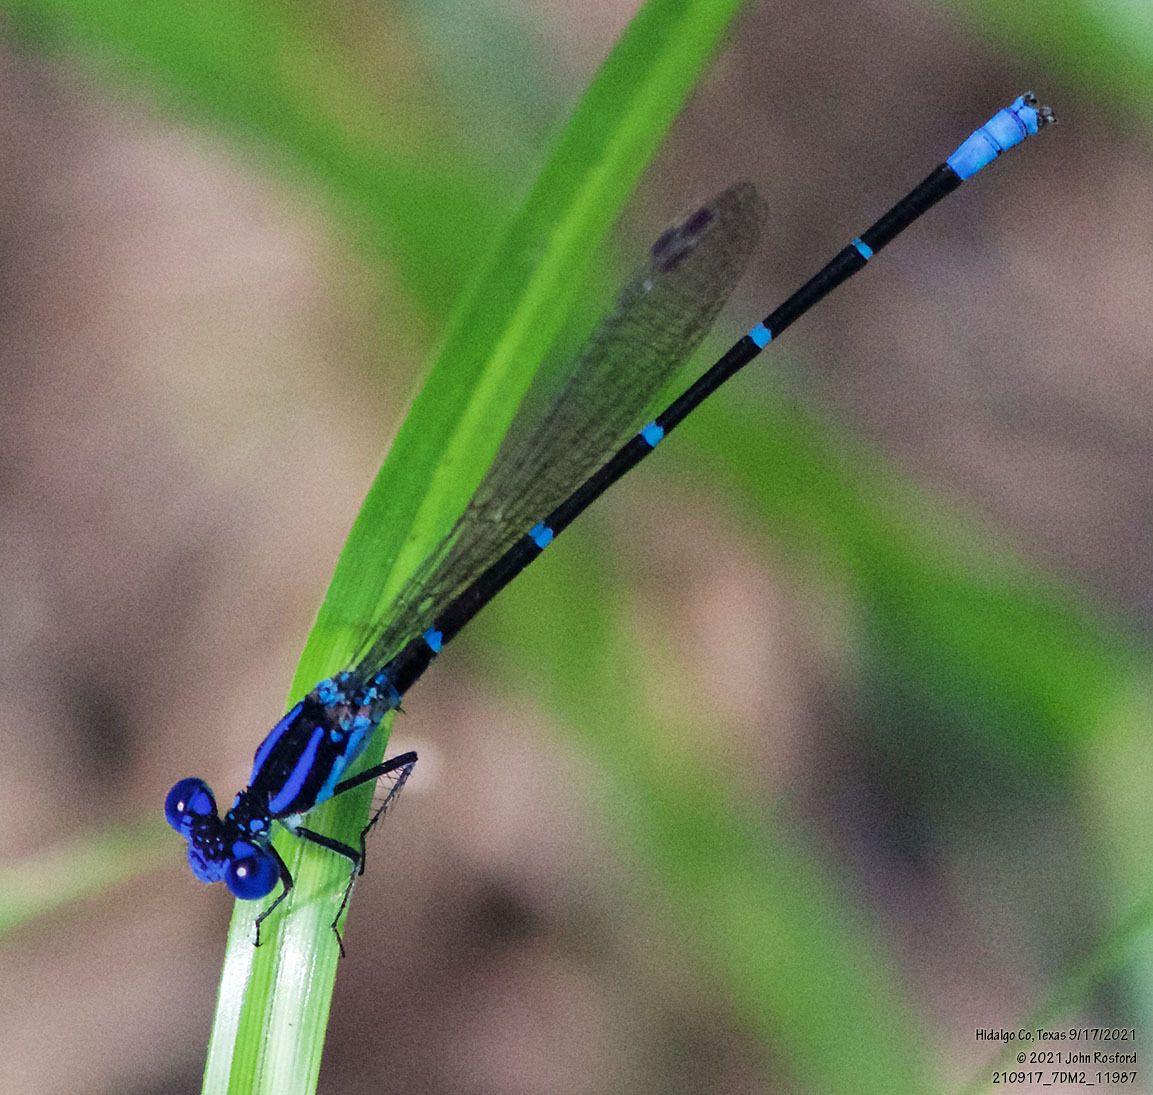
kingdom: Animalia
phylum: Arthropoda
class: Insecta
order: Odonata
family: Coenagrionidae
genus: Argia
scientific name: Argia sedula
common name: Blue-ringed dancer
